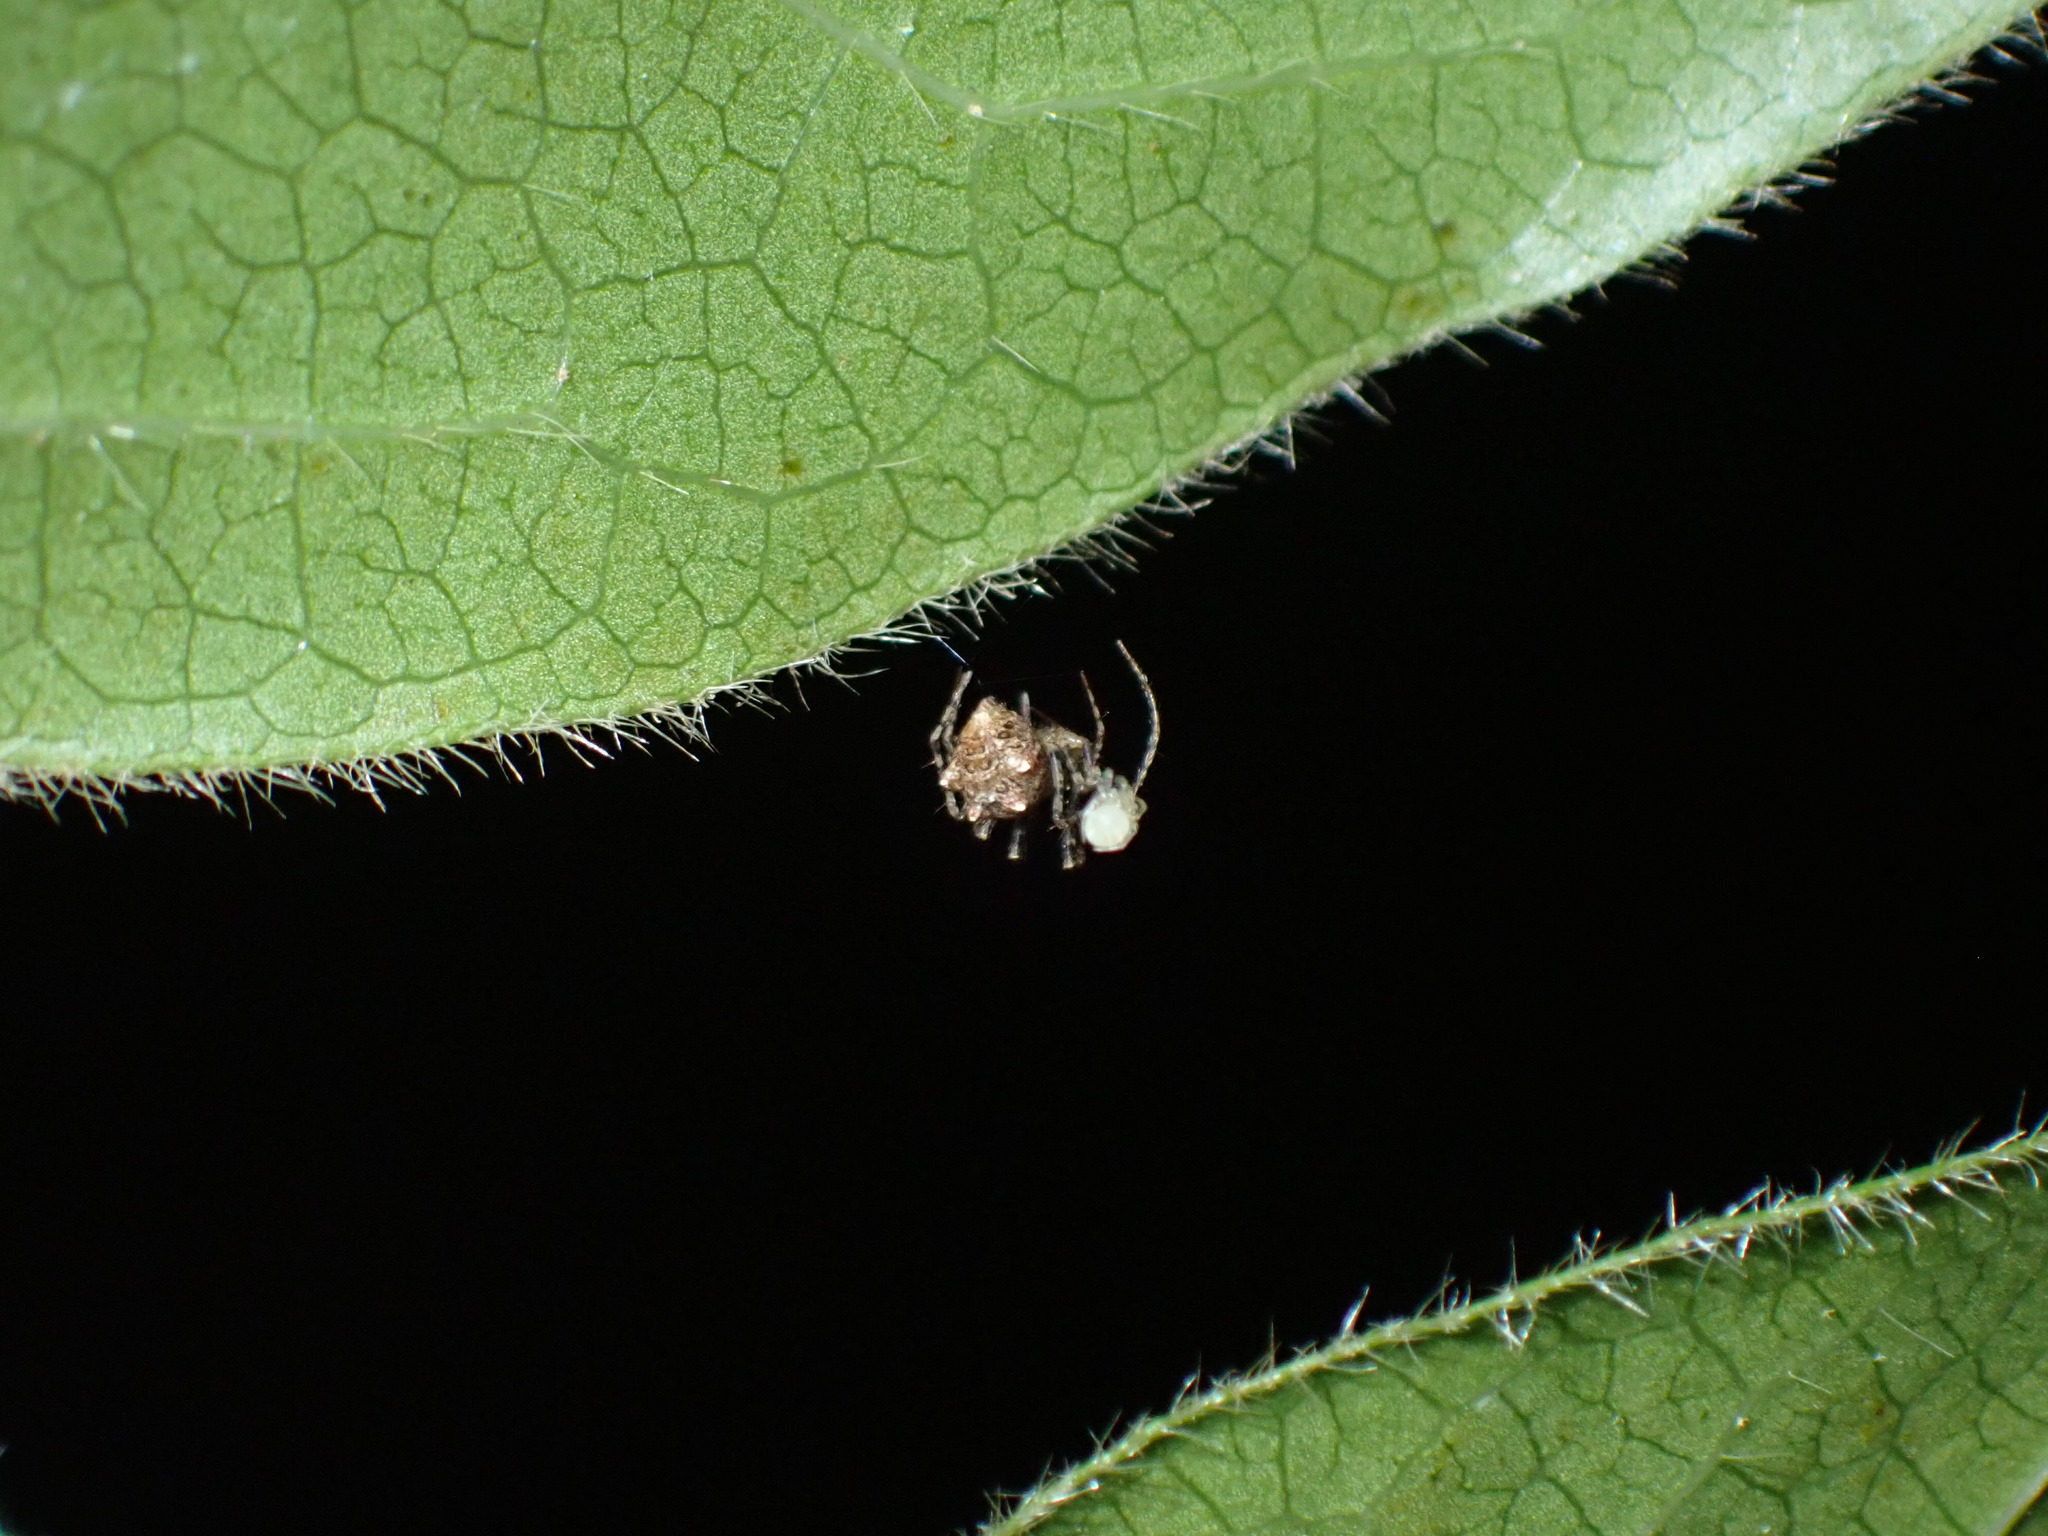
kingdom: Animalia
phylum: Arthropoda
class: Arachnida
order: Araneae
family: Mimetidae
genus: Ero
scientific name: Ero aphana
